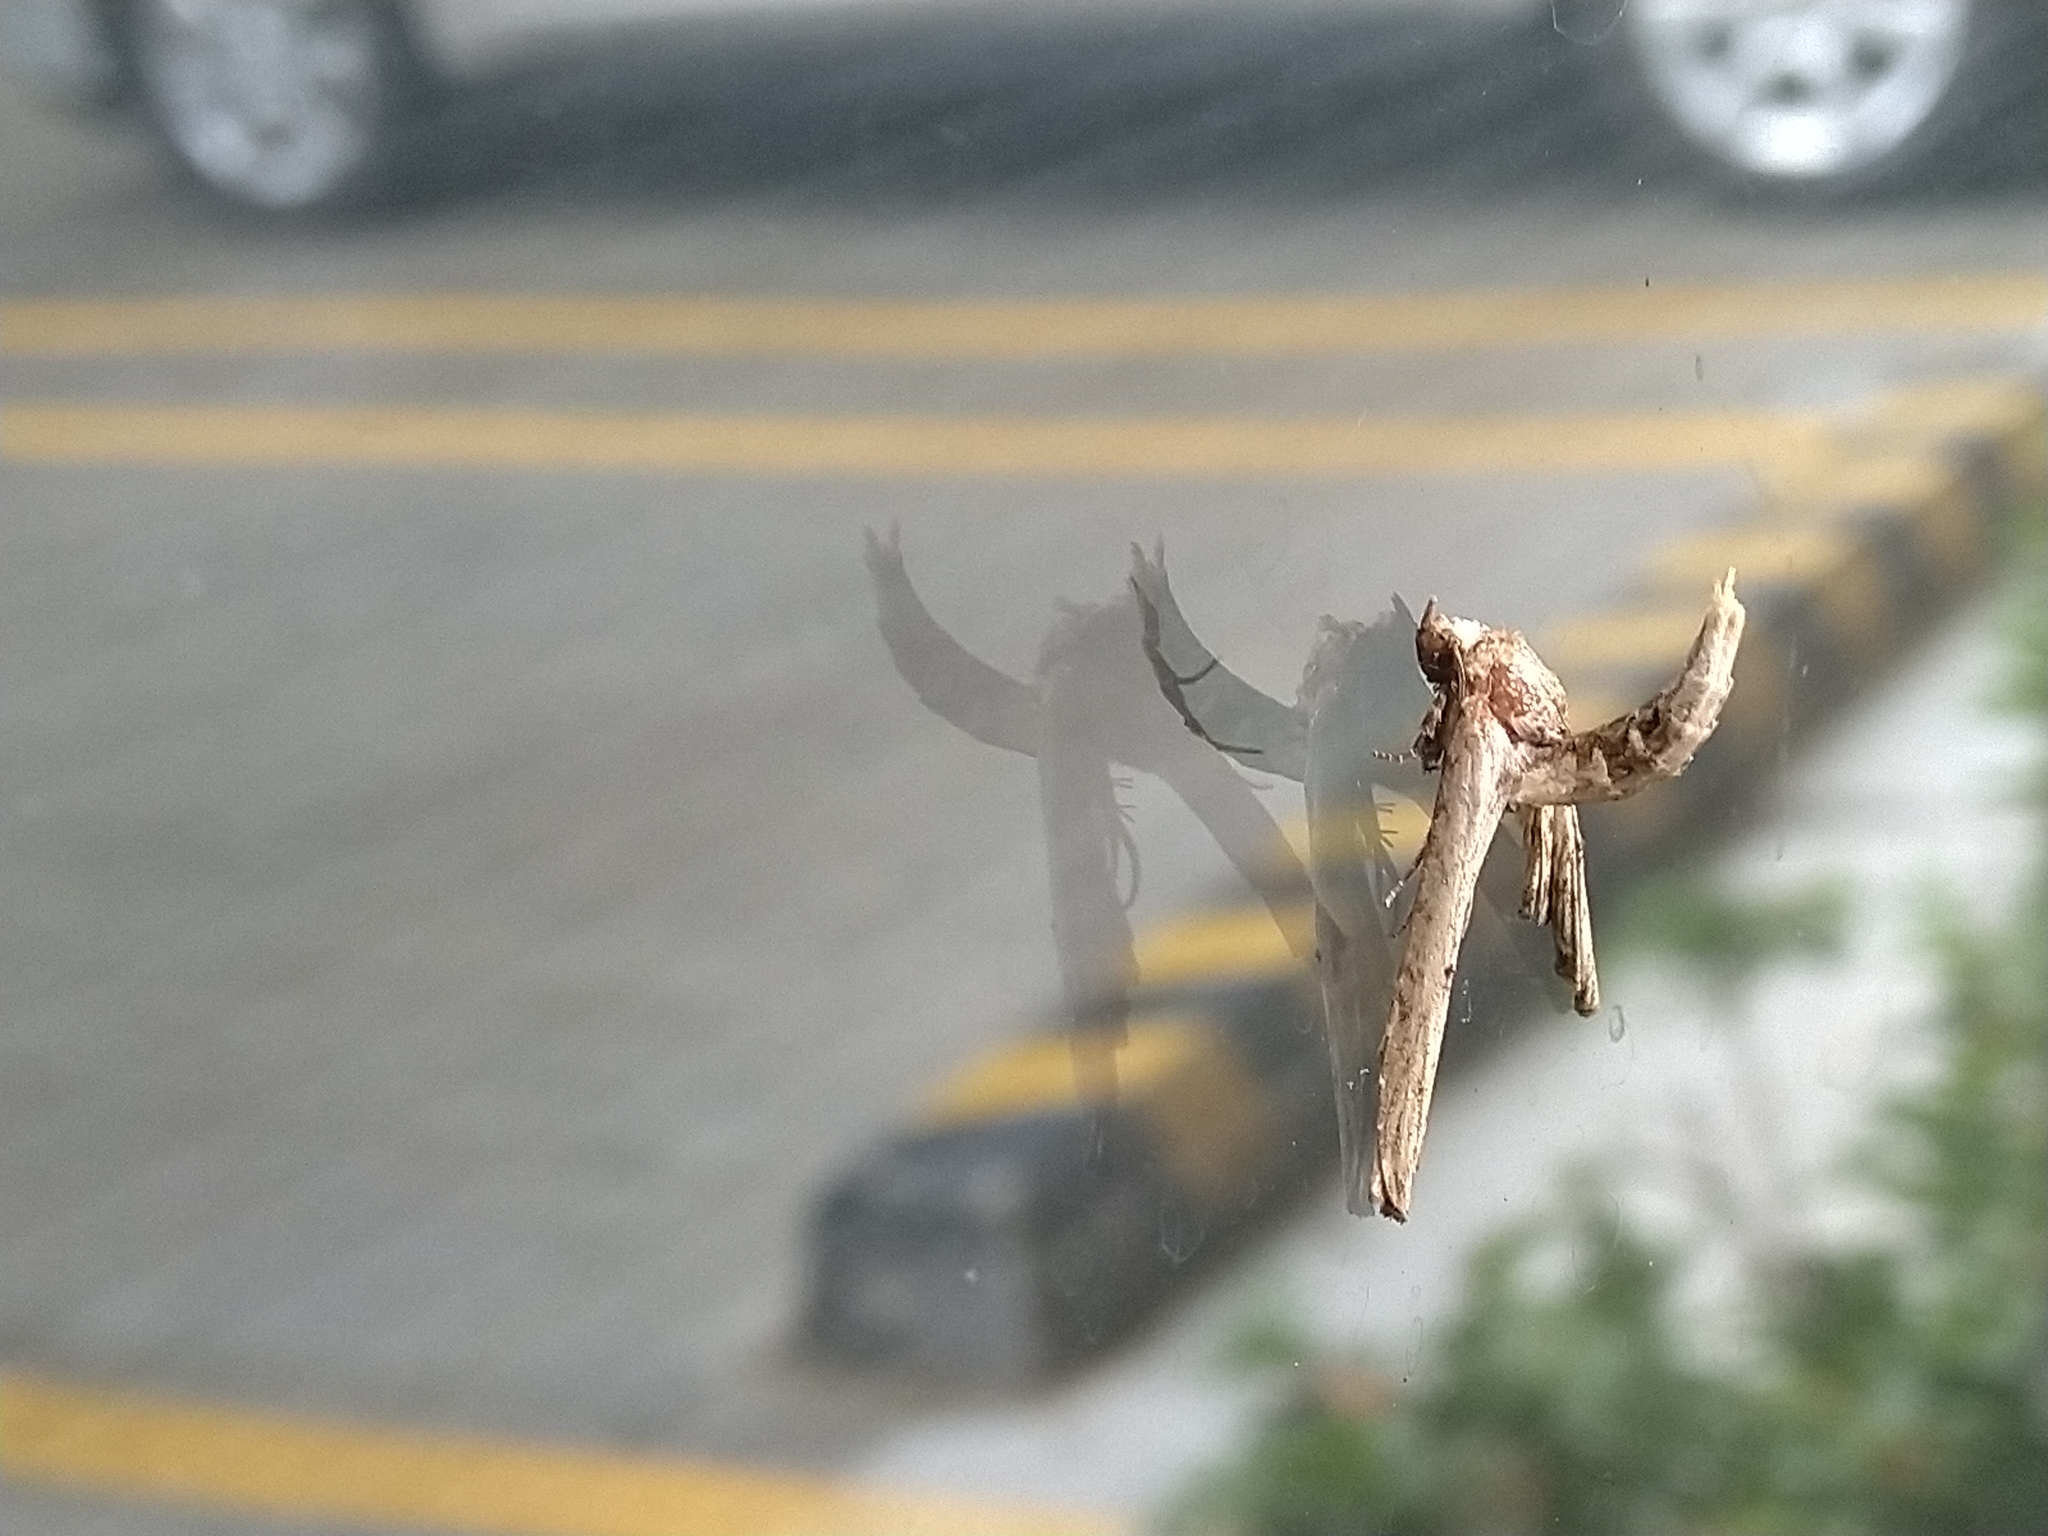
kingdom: Animalia
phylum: Arthropoda
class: Insecta
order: Lepidoptera
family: Euteliidae
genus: Anigraea
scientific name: Anigraea homochroa
